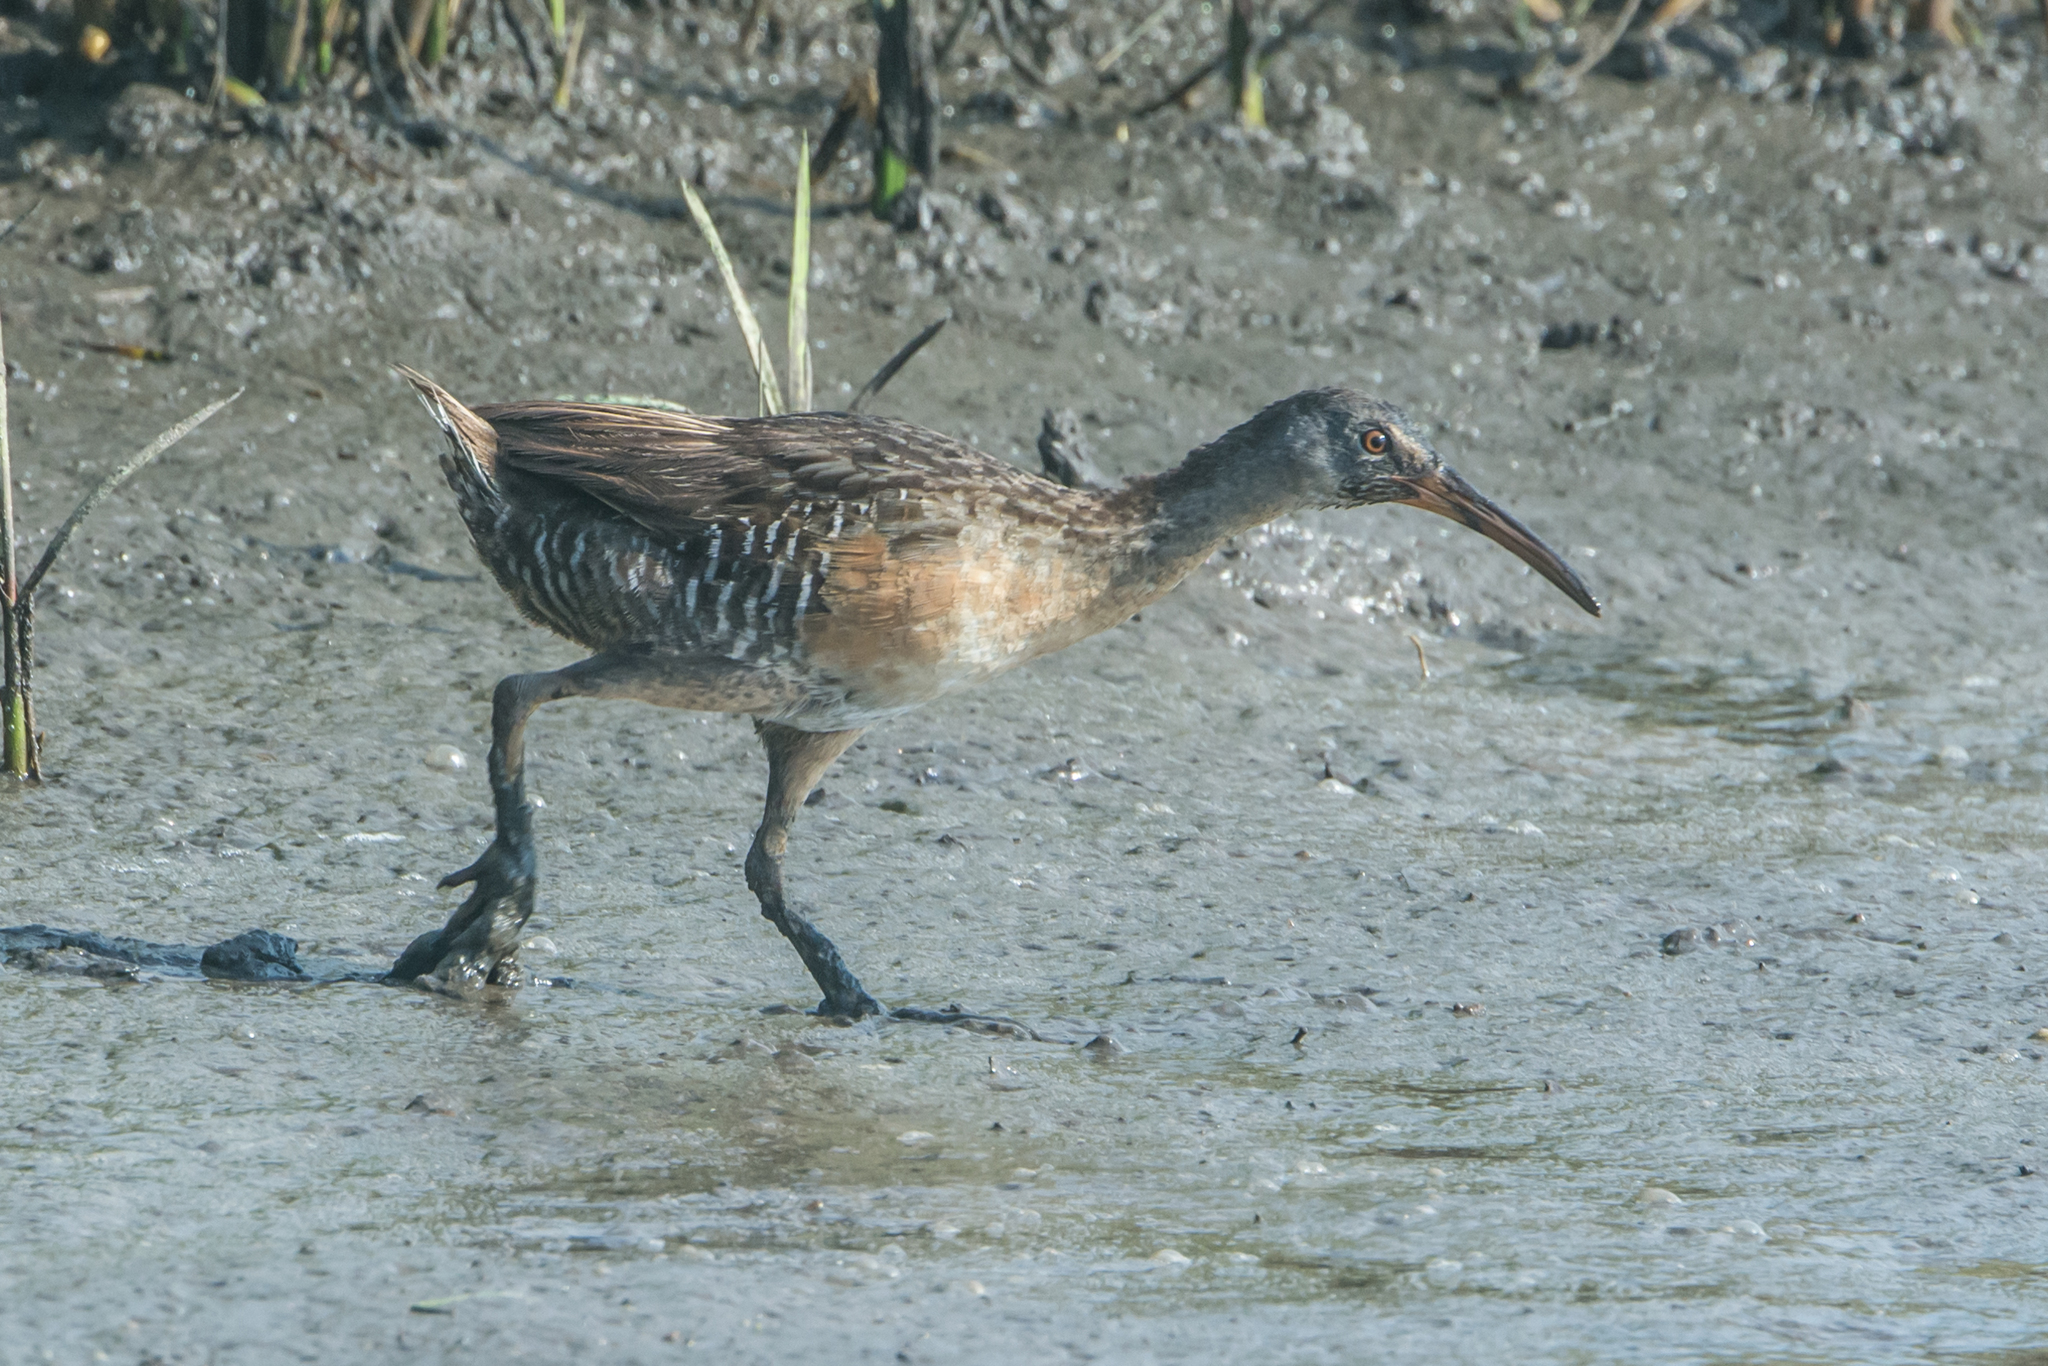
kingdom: Animalia
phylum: Chordata
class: Aves
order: Gruiformes
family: Rallidae
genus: Rallus
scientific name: Rallus crepitans
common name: Clapper rail
